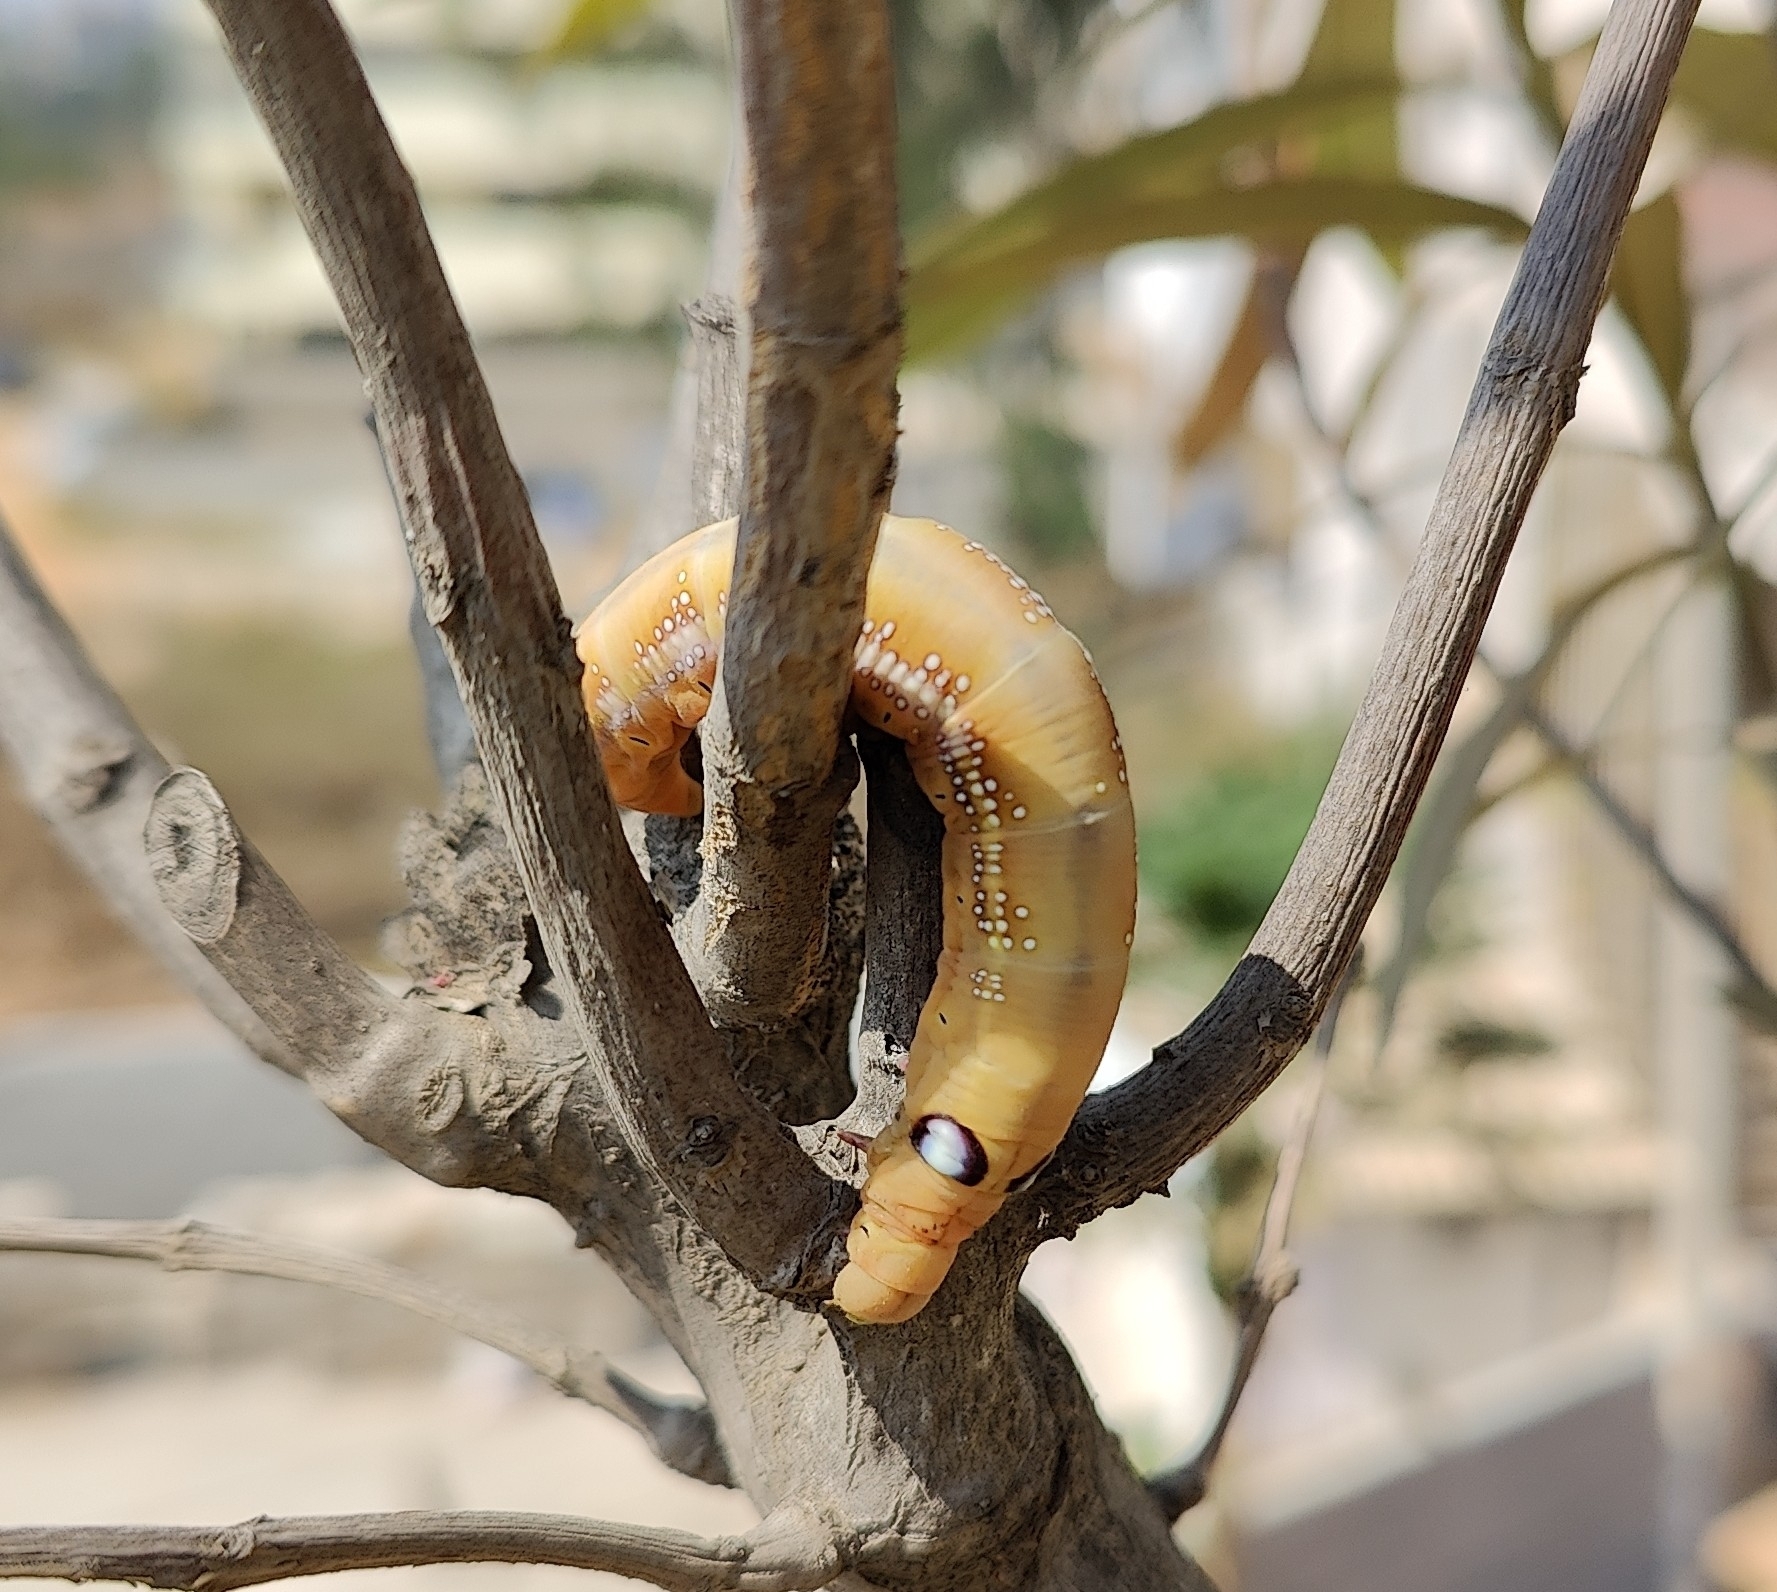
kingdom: Animalia
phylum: Arthropoda
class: Insecta
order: Lepidoptera
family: Sphingidae
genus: Daphnis
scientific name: Daphnis nerii
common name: Oleander hawk-moth
